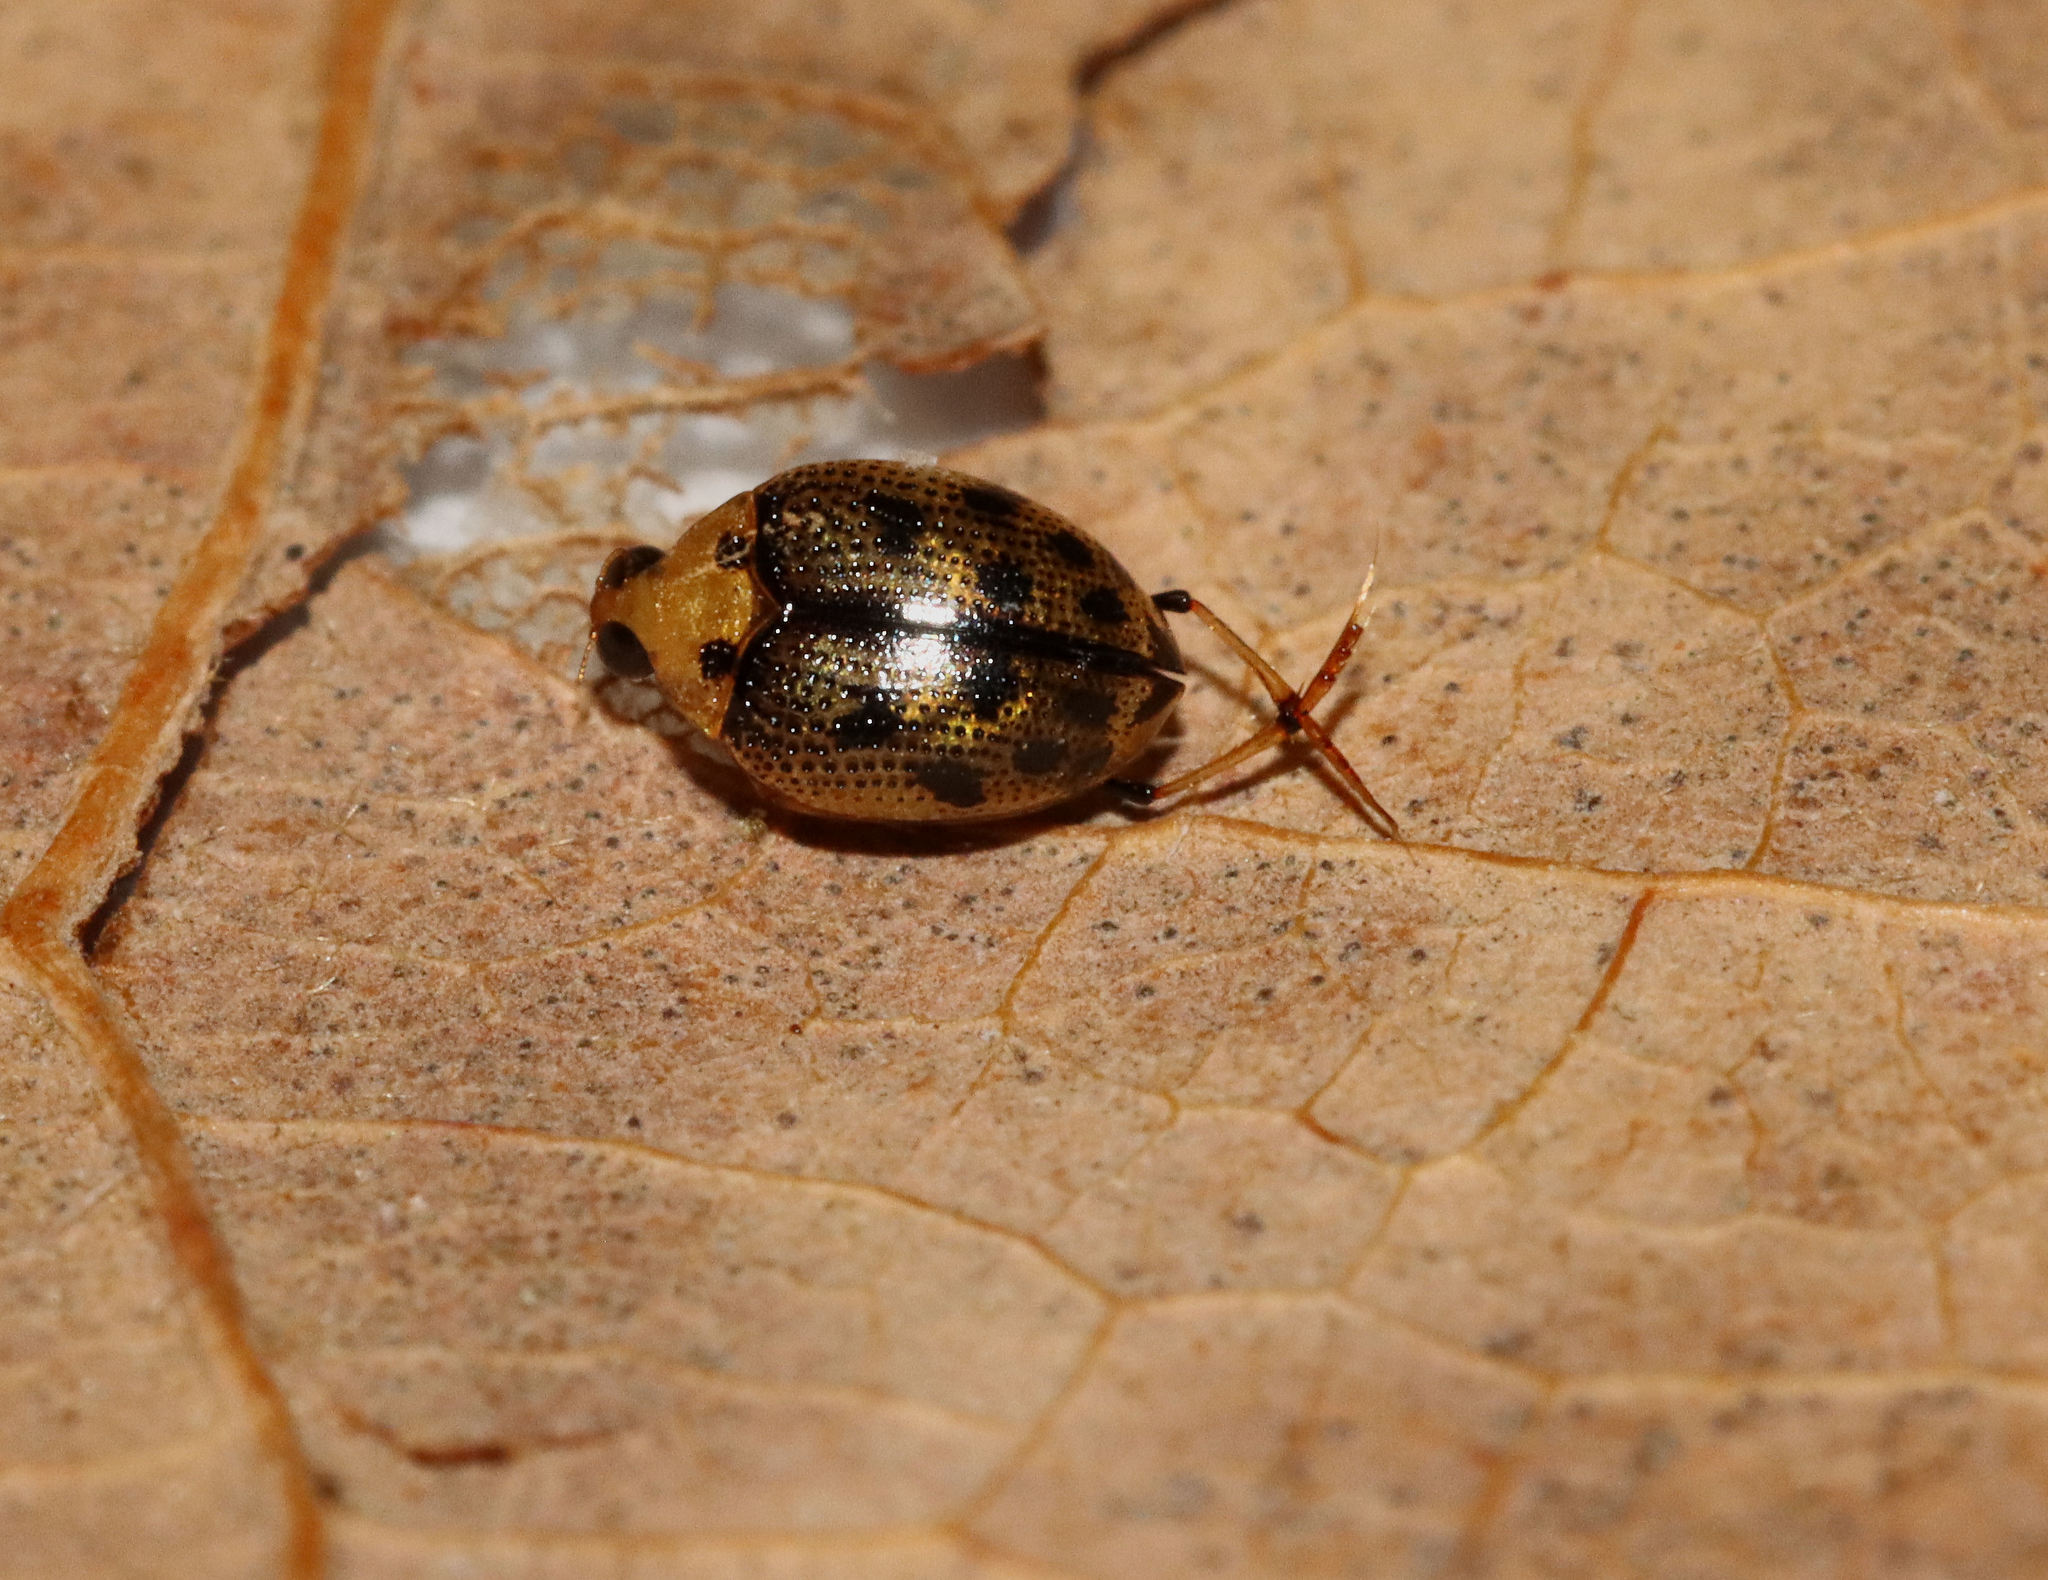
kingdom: Animalia
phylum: Arthropoda
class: Insecta
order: Coleoptera
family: Haliplidae
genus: Peltodytes
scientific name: Peltodytes sexmaculatus
